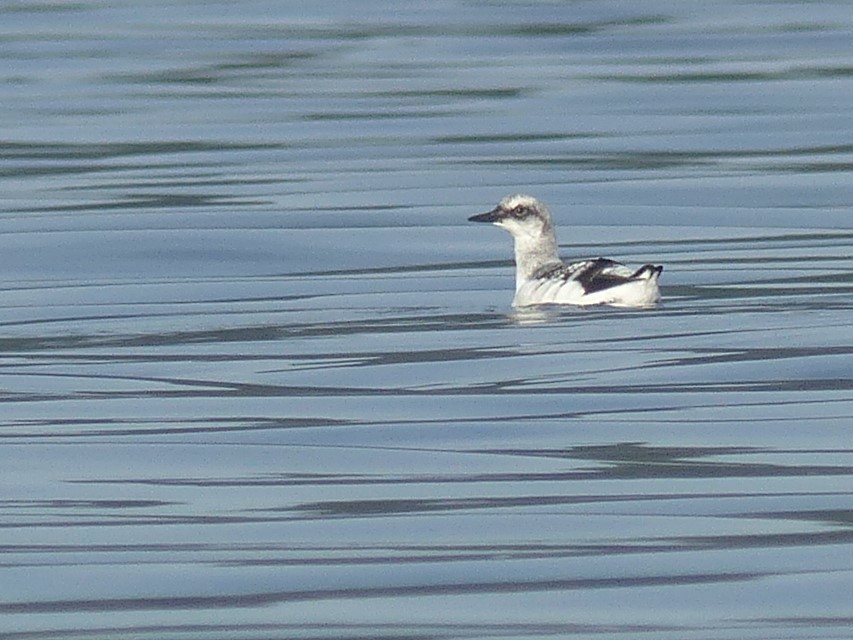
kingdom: Animalia
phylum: Chordata
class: Aves
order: Charadriiformes
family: Alcidae
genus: Cepphus
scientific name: Cepphus columba
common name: Pigeon guillemot
